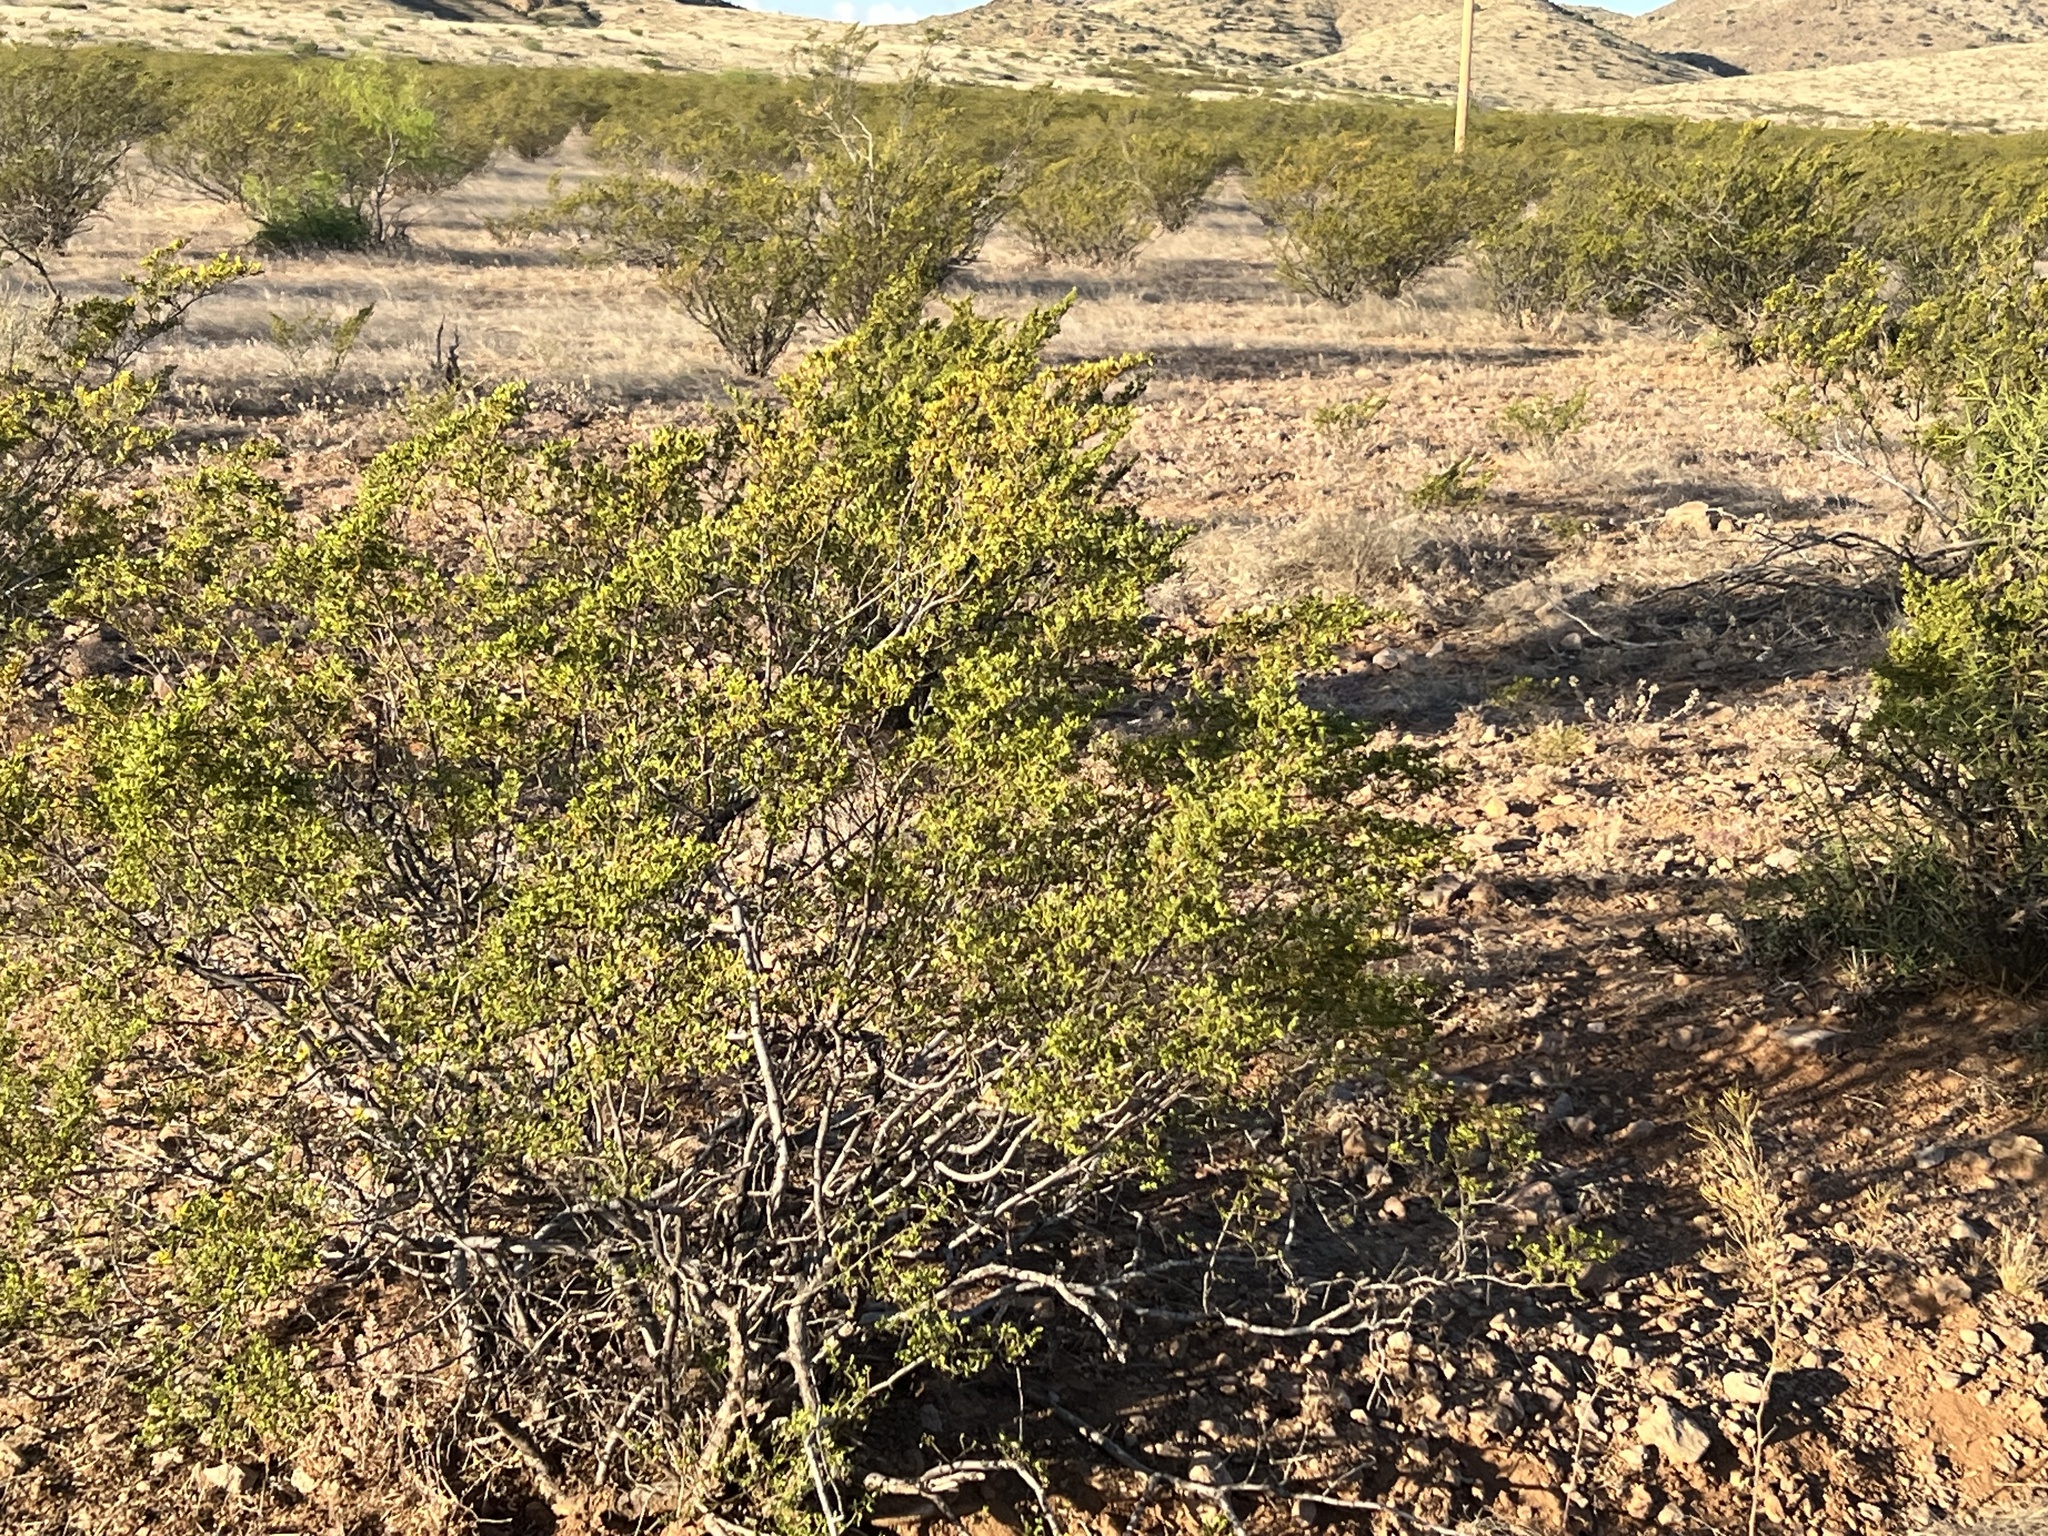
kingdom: Plantae
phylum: Tracheophyta
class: Magnoliopsida
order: Zygophyllales
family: Zygophyllaceae
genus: Larrea
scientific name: Larrea tridentata
